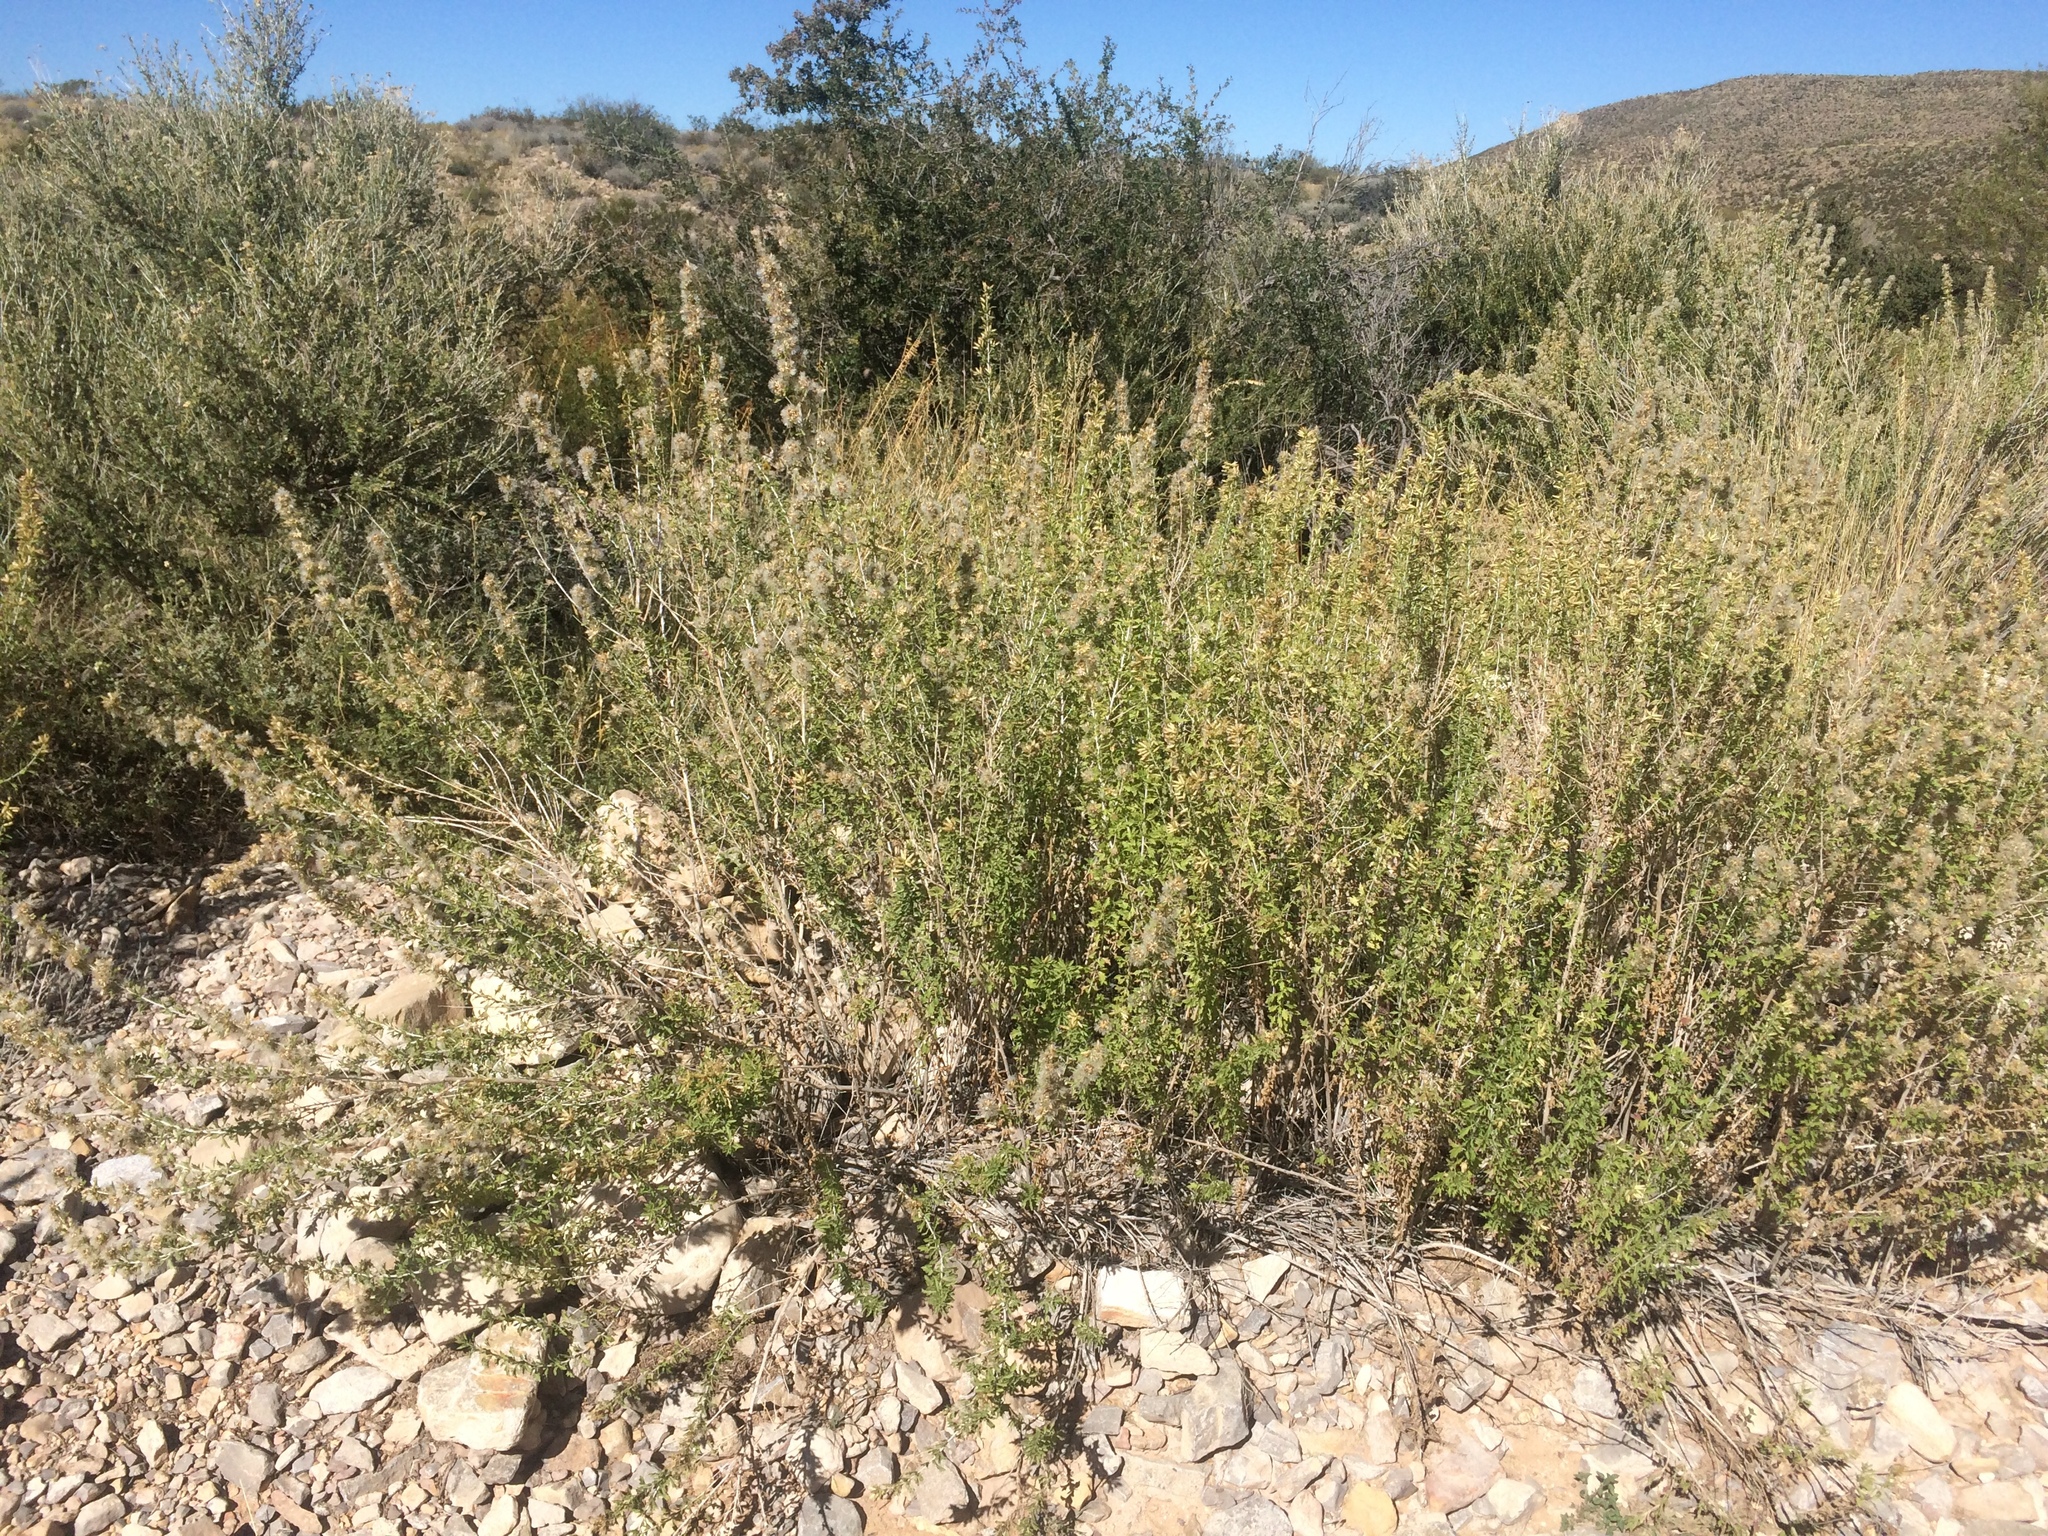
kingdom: Plantae
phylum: Tracheophyta
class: Magnoliopsida
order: Asterales
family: Asteraceae
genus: Brickellia
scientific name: Brickellia laciniata
